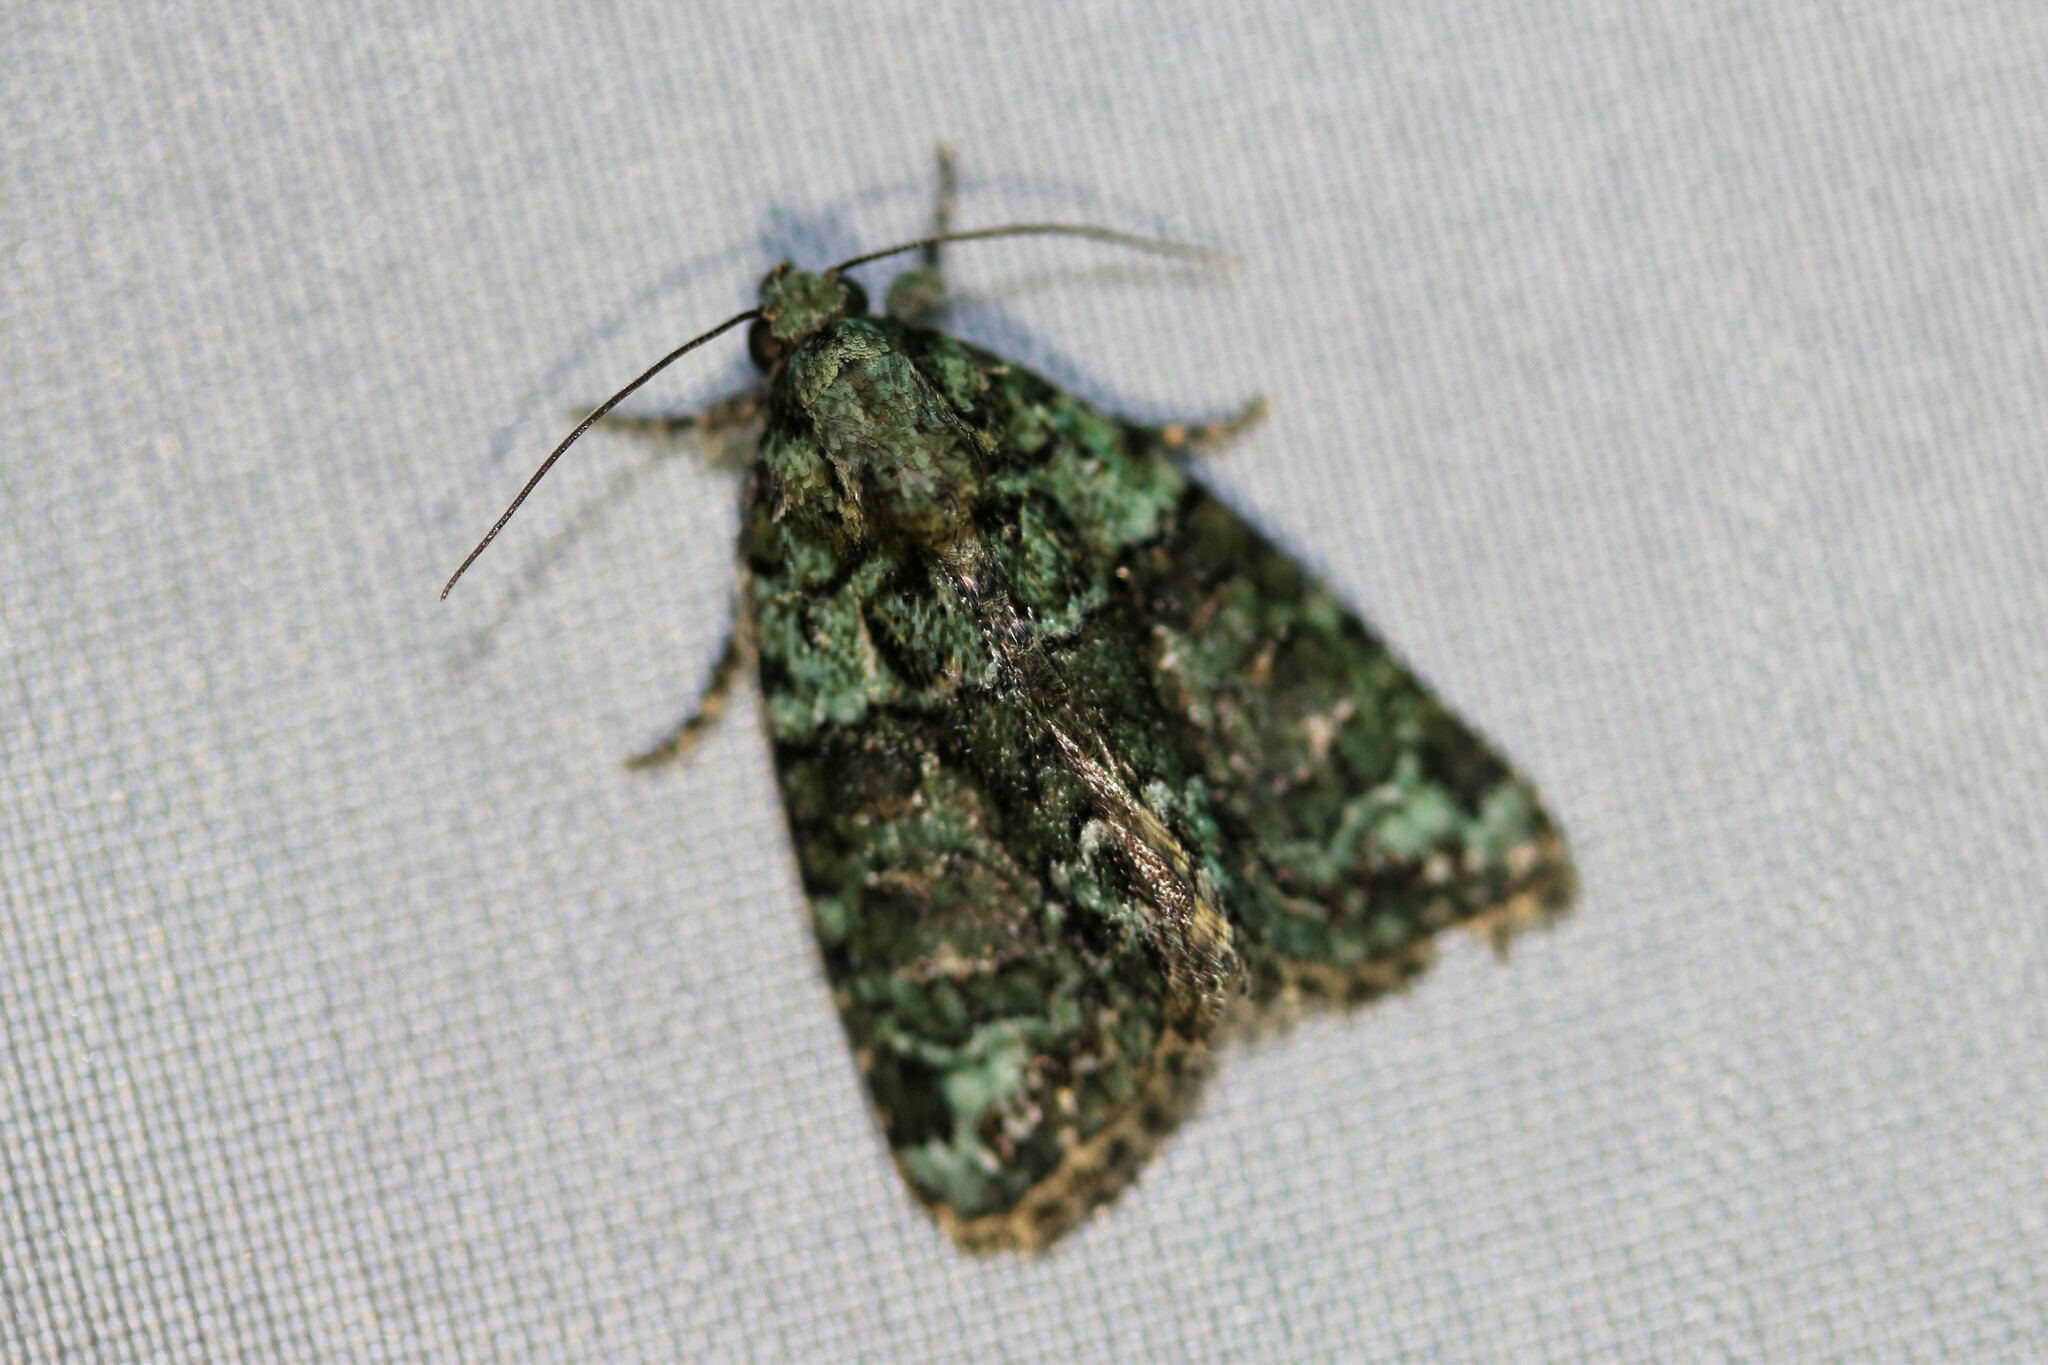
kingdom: Animalia
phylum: Arthropoda
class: Insecta
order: Lepidoptera
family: Noctuidae
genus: Cryphia
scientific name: Cryphia algae
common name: Tree-lichen beauty
